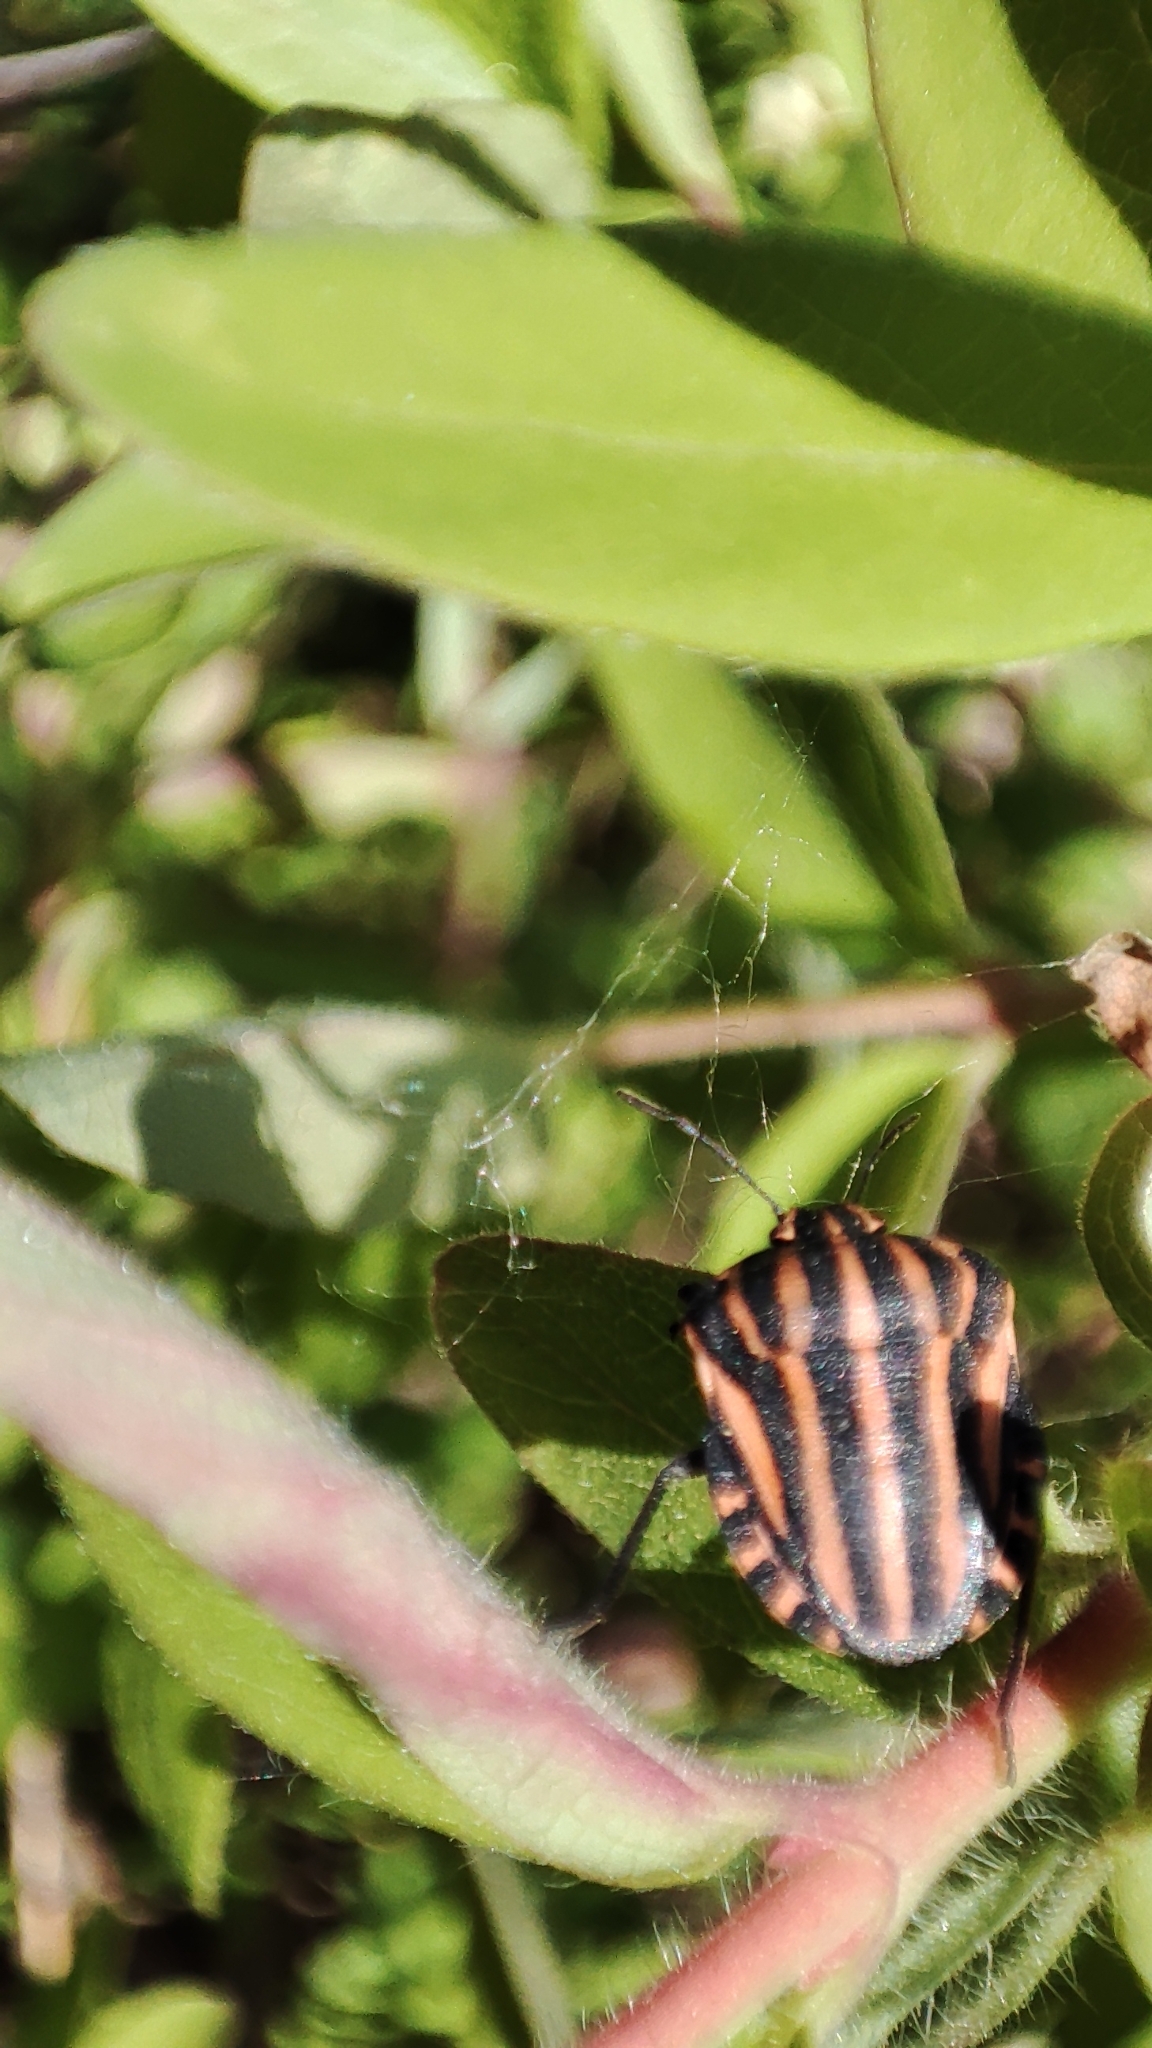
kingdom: Animalia
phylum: Arthropoda
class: Insecta
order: Hemiptera
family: Pentatomidae
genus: Graphosoma
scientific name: Graphosoma italicum
